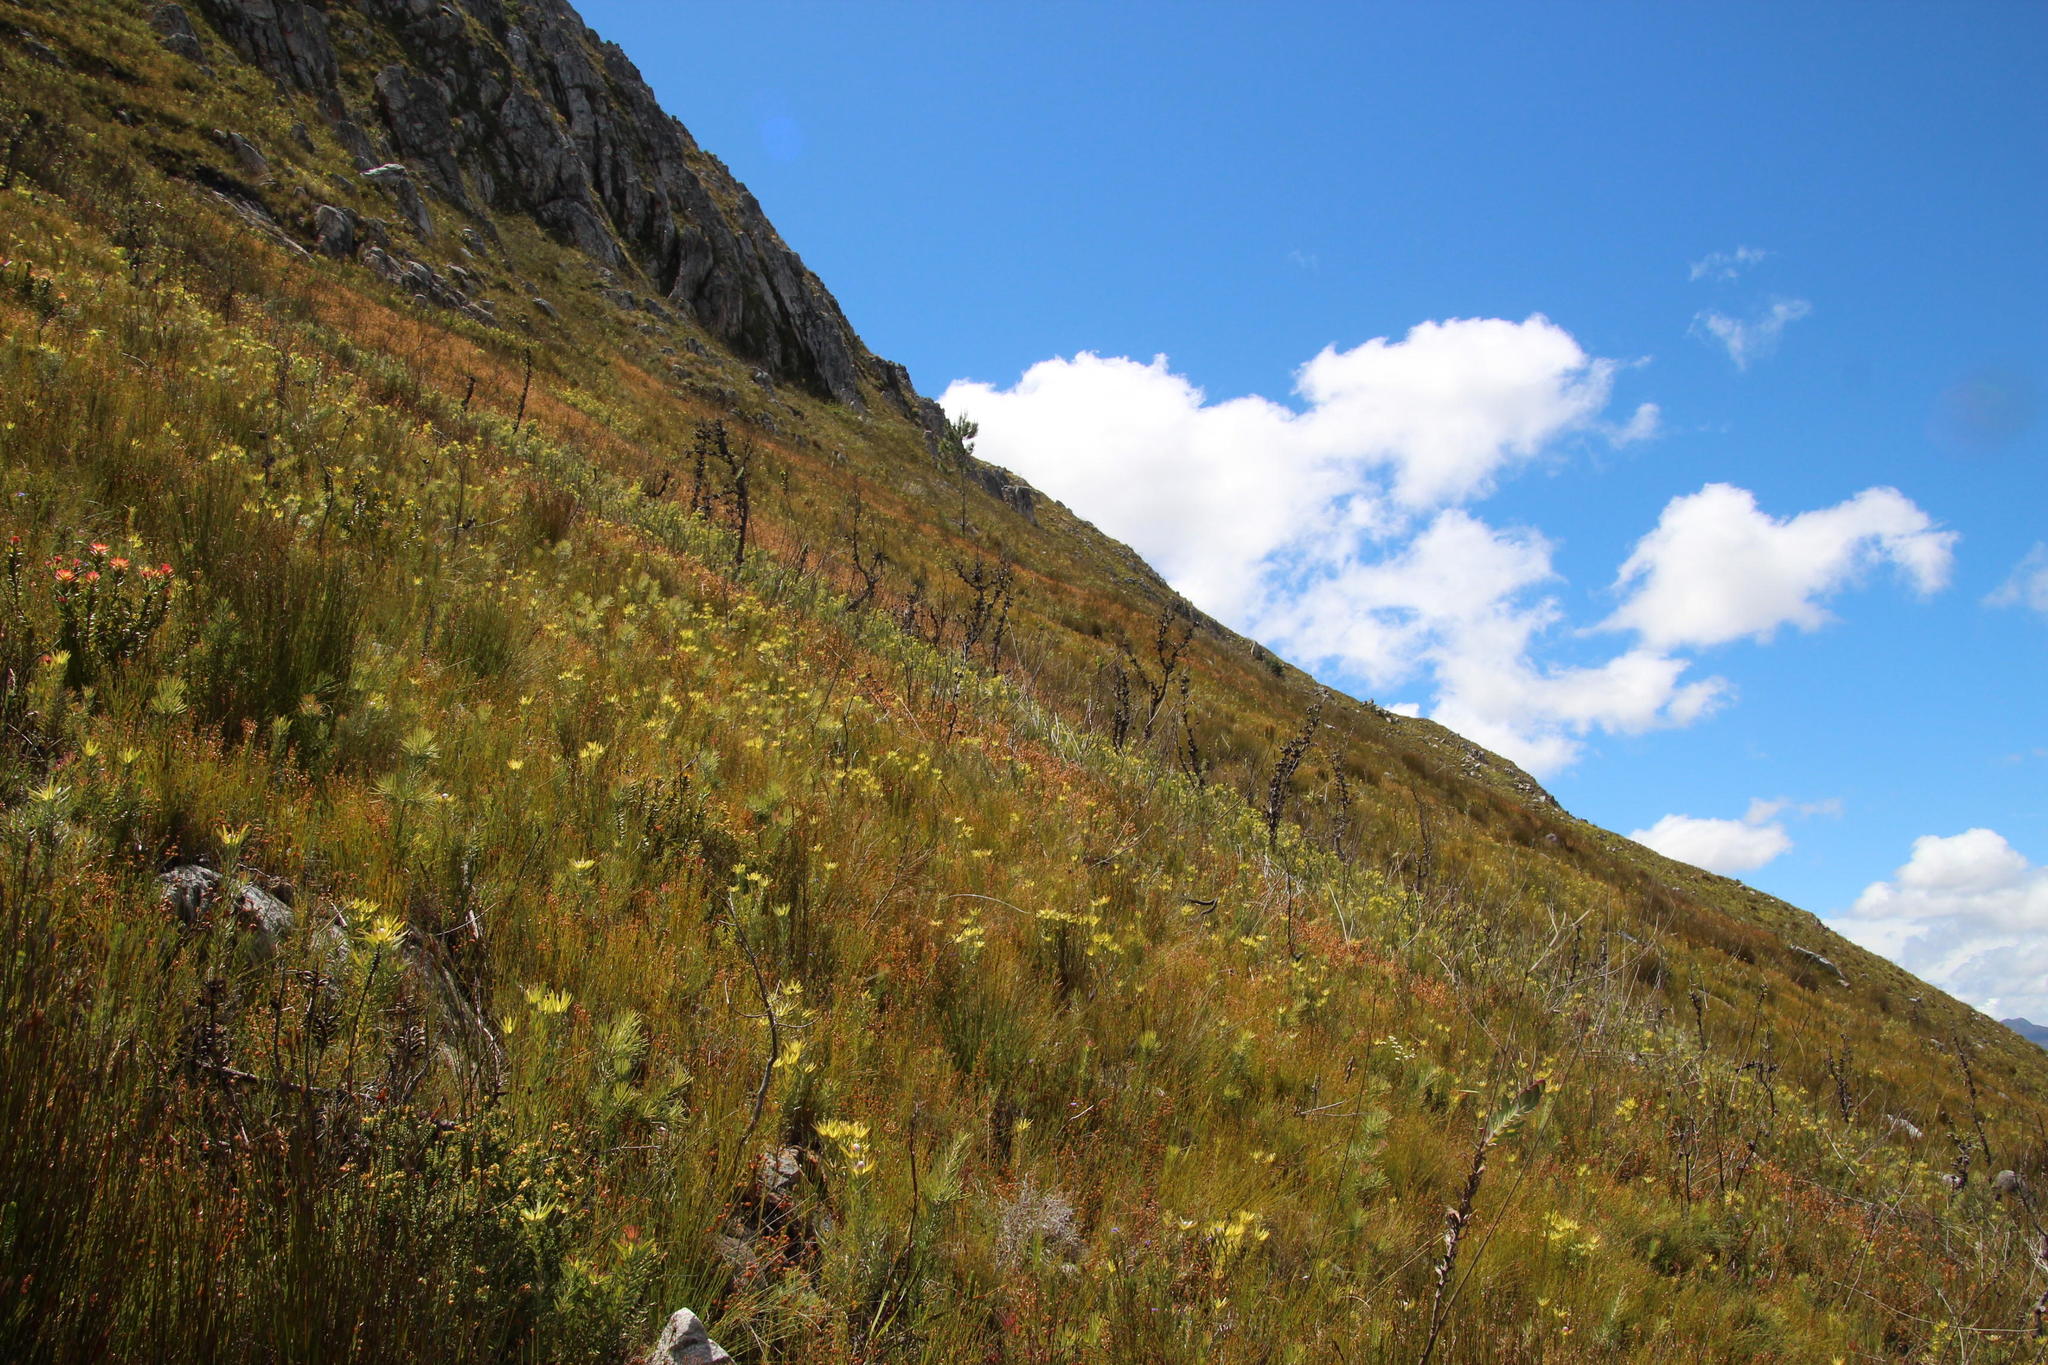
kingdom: Plantae
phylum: Tracheophyta
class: Magnoliopsida
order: Proteales
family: Proteaceae
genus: Leucadendron
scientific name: Leucadendron xanthoconus
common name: Sickle-leaf conebush
